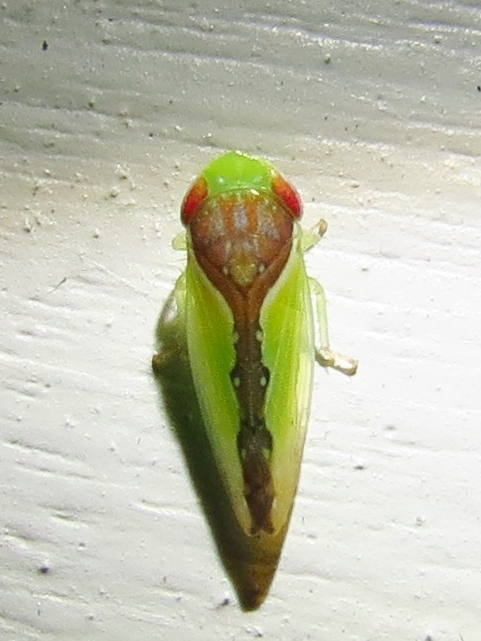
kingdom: Animalia
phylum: Arthropoda
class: Insecta
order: Hemiptera
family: Cicadellidae
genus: Omansobara ing
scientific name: Omansobara ing Omansobara palliolata
